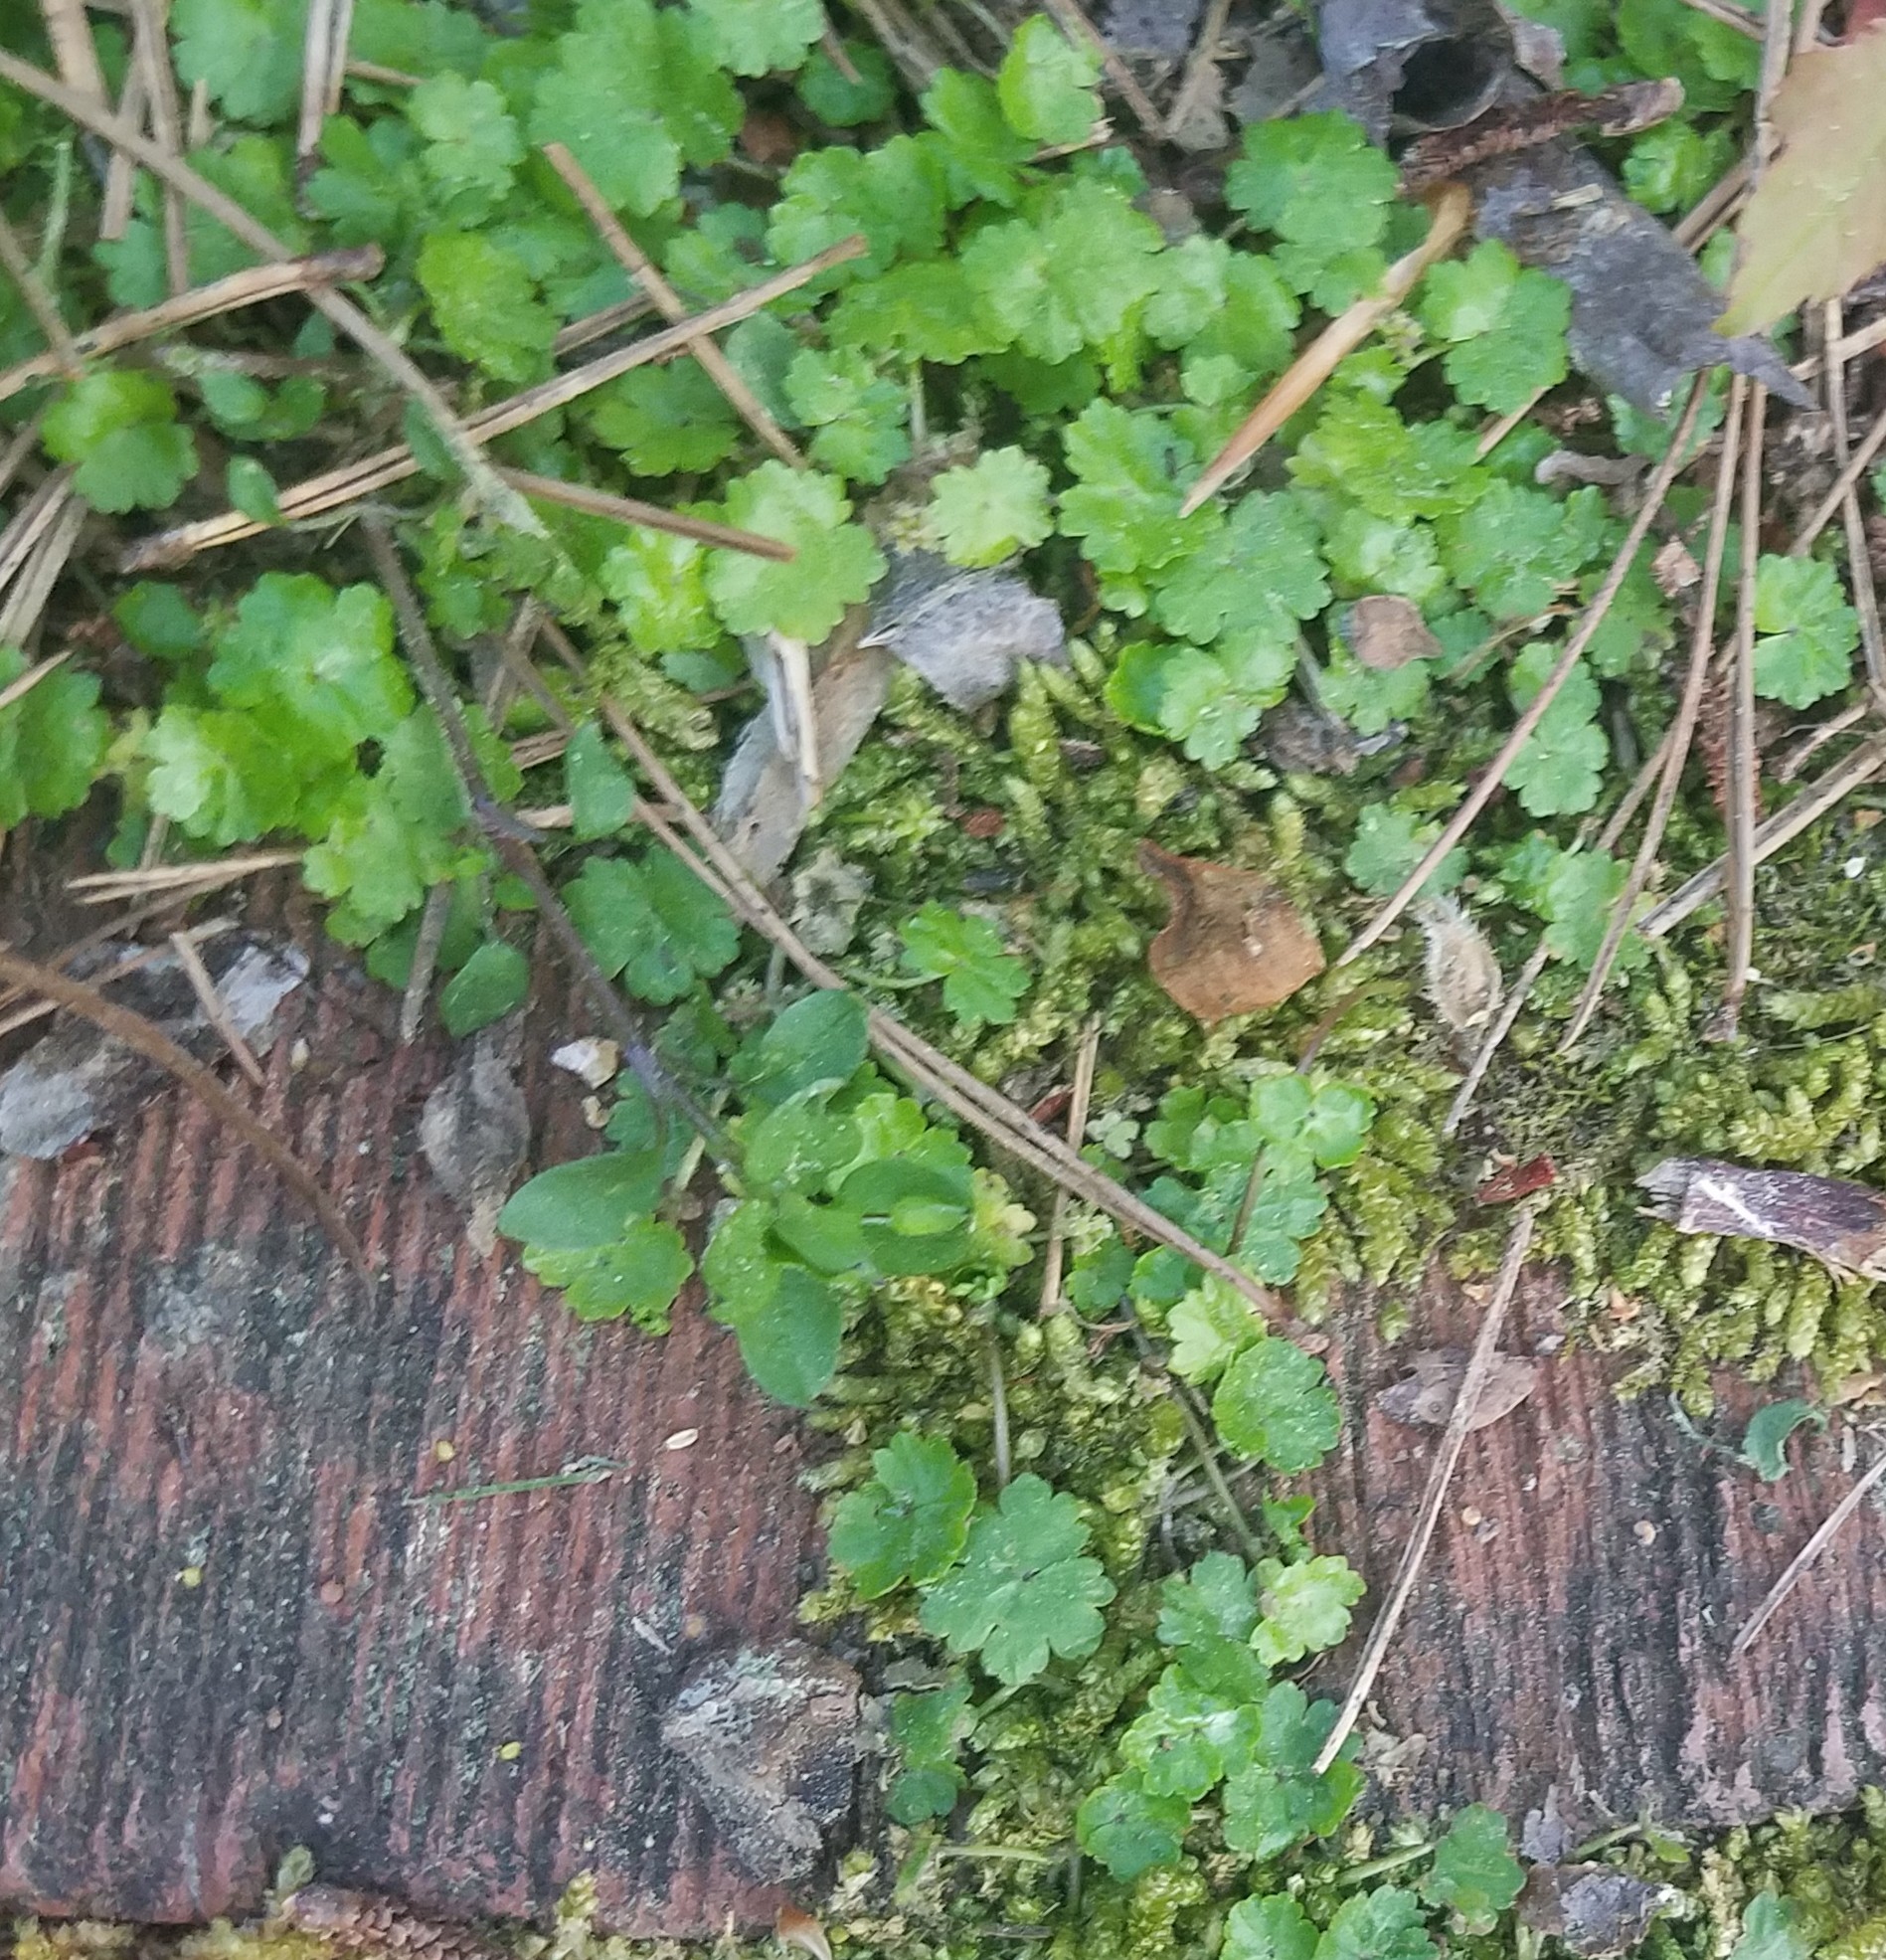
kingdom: Plantae
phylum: Tracheophyta
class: Magnoliopsida
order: Apiales
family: Araliaceae
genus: Hydrocotyle
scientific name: Hydrocotyle sibthorpioides
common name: Lawn marshpennywort
